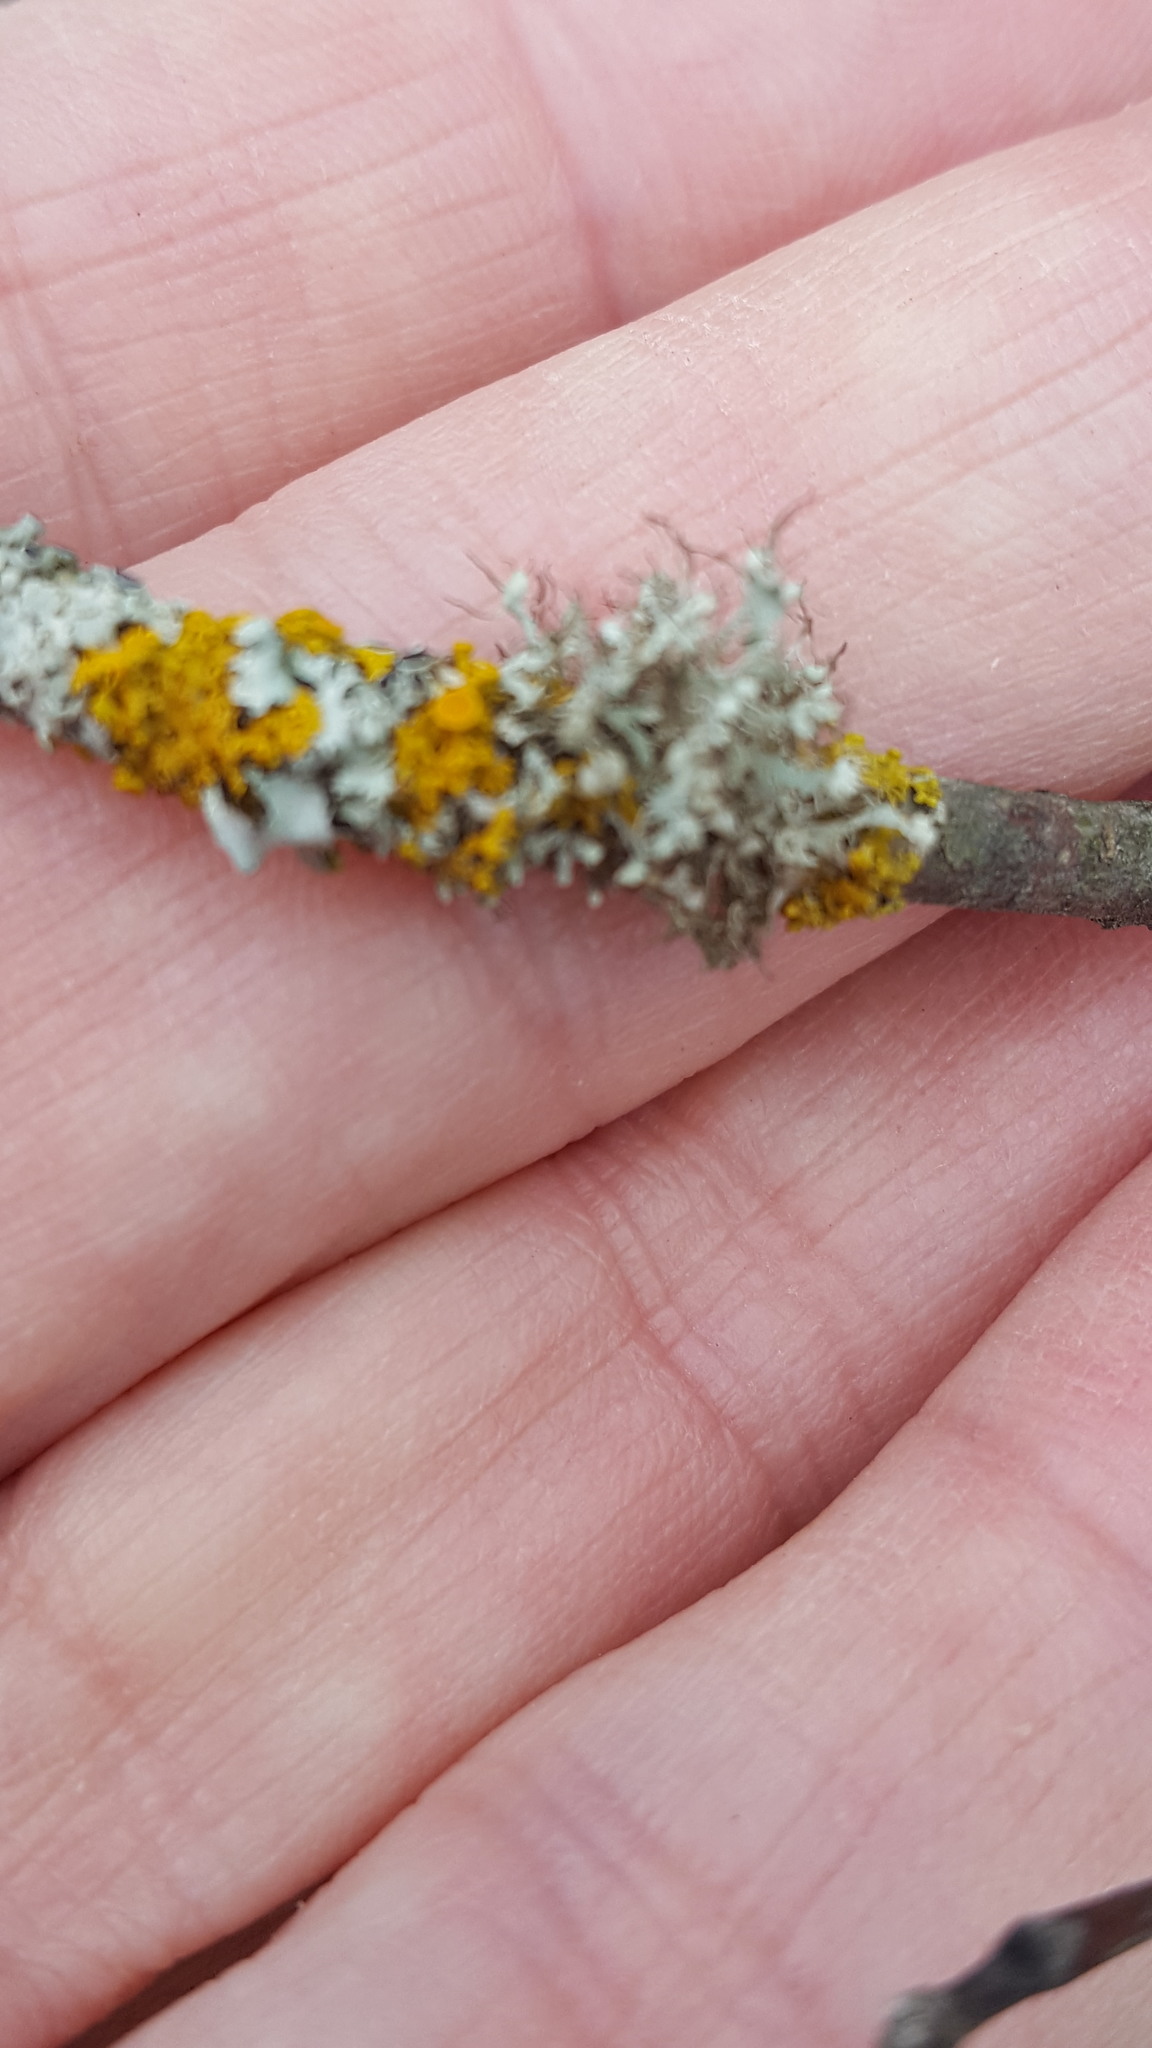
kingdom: Fungi
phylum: Ascomycota
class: Lecanoromycetes
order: Caliciales
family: Physciaceae
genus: Physcia
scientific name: Physcia adscendens
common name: Hooded rosette lichen
